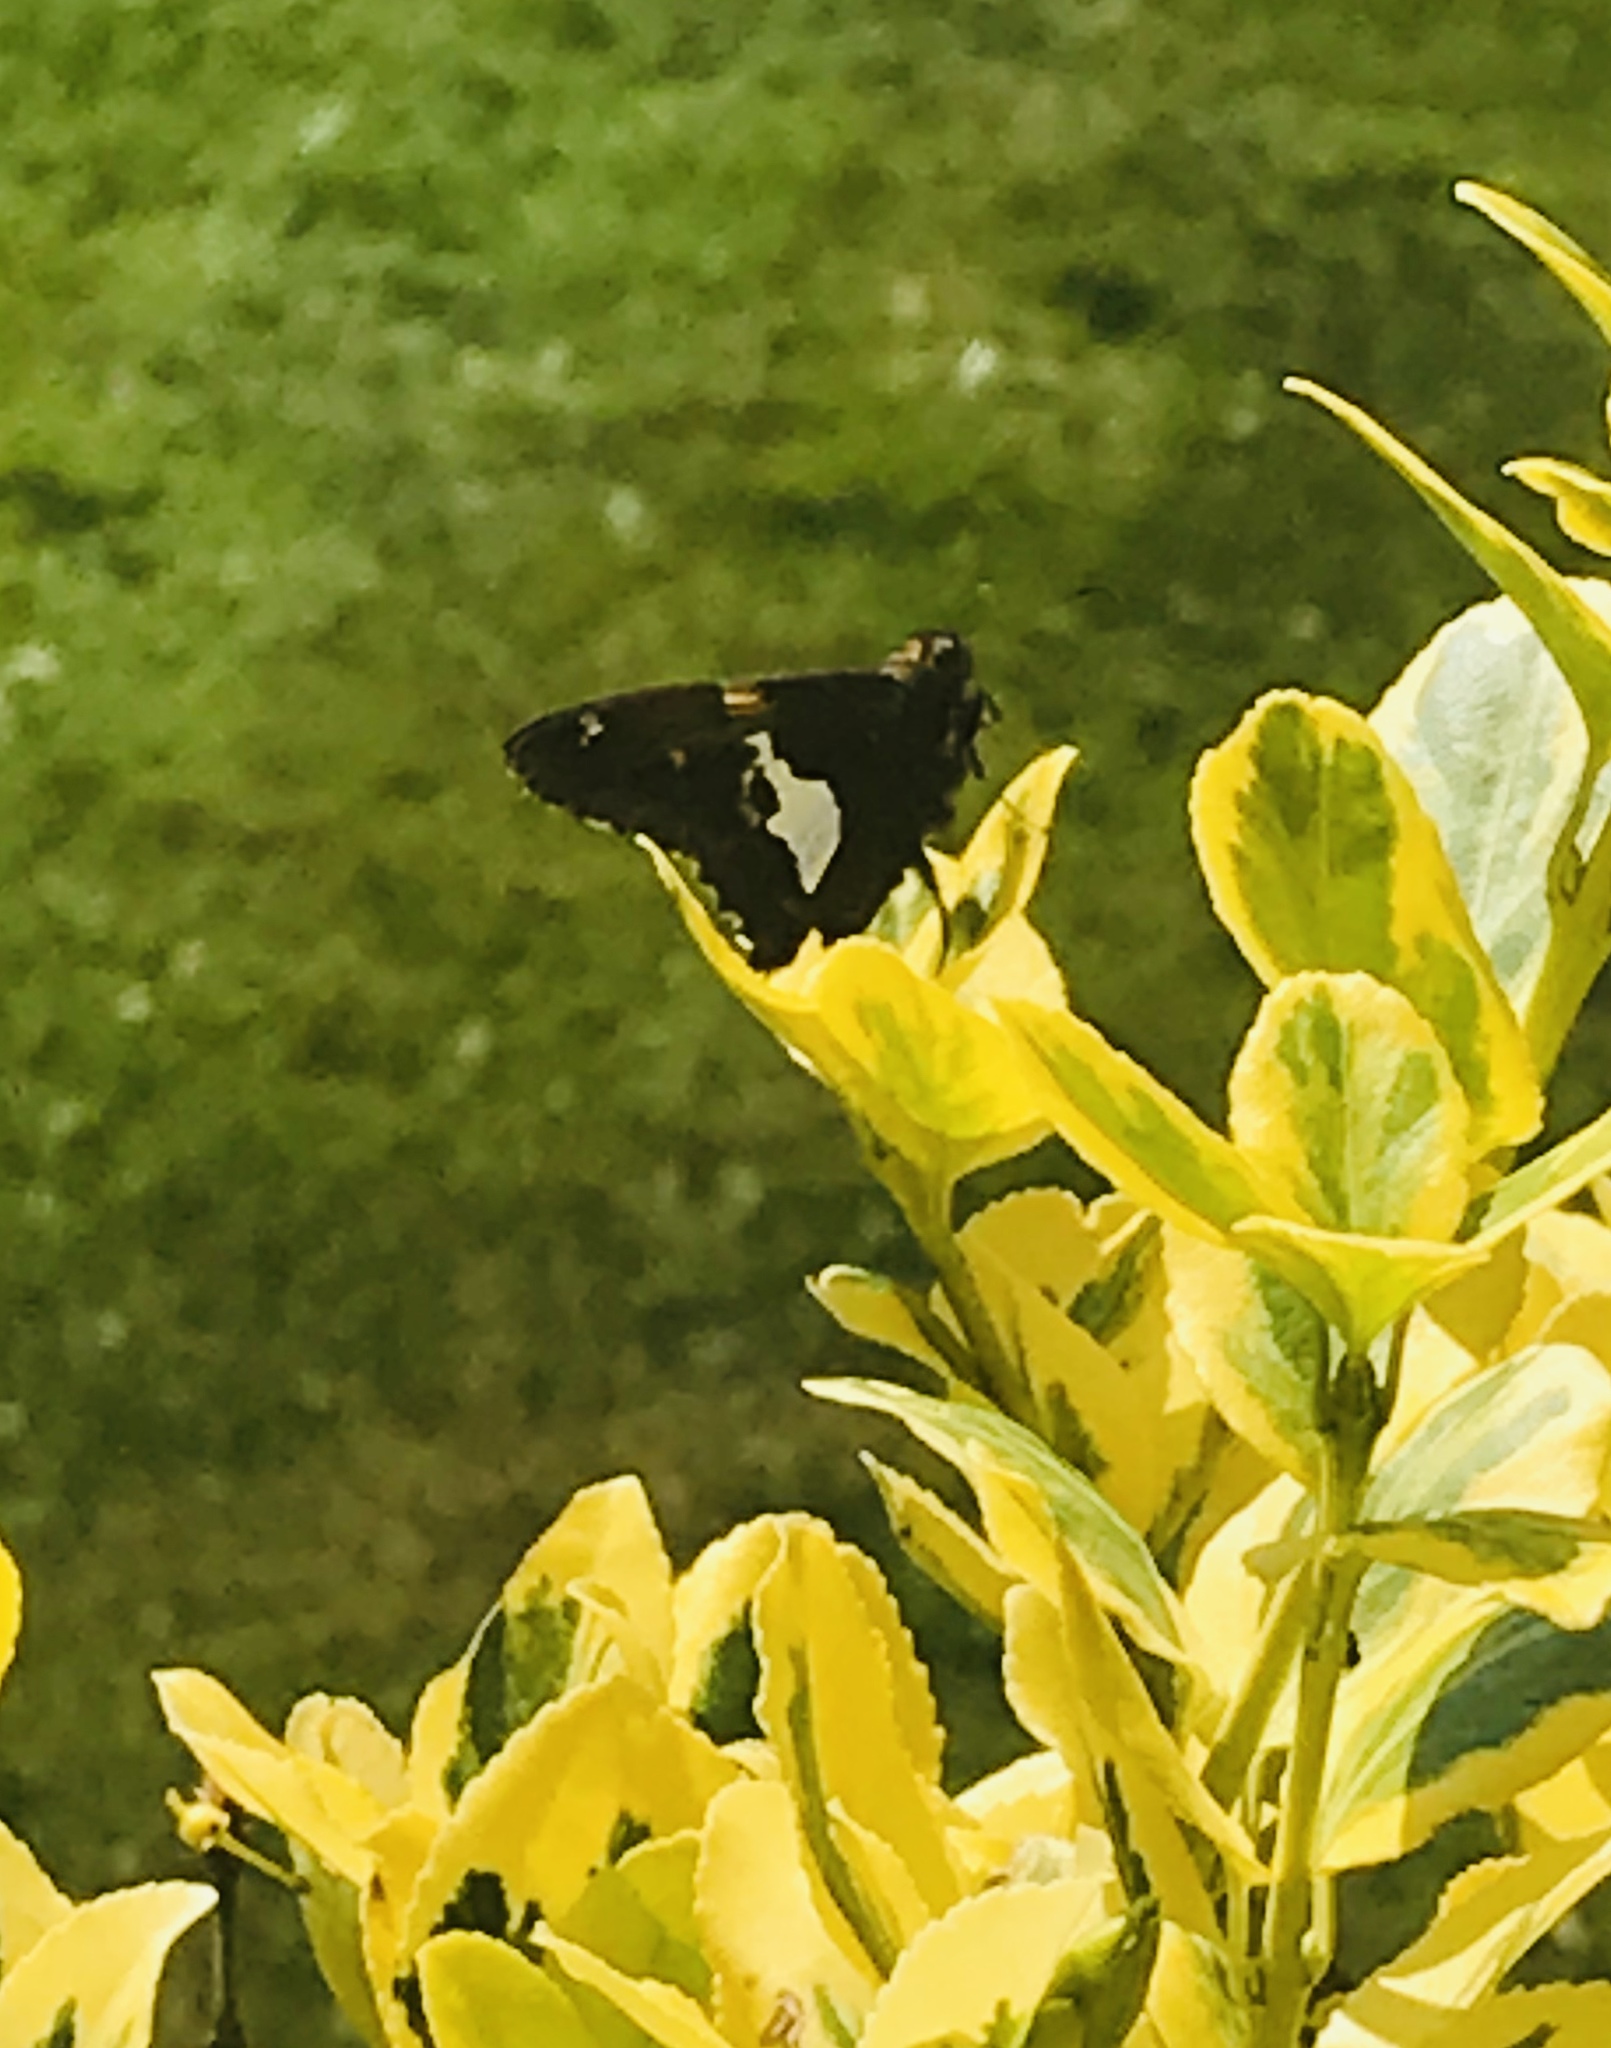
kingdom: Animalia
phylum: Arthropoda
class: Insecta
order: Lepidoptera
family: Hesperiidae
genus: Epargyreus
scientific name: Epargyreus clarus
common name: Silver-spotted skipper
